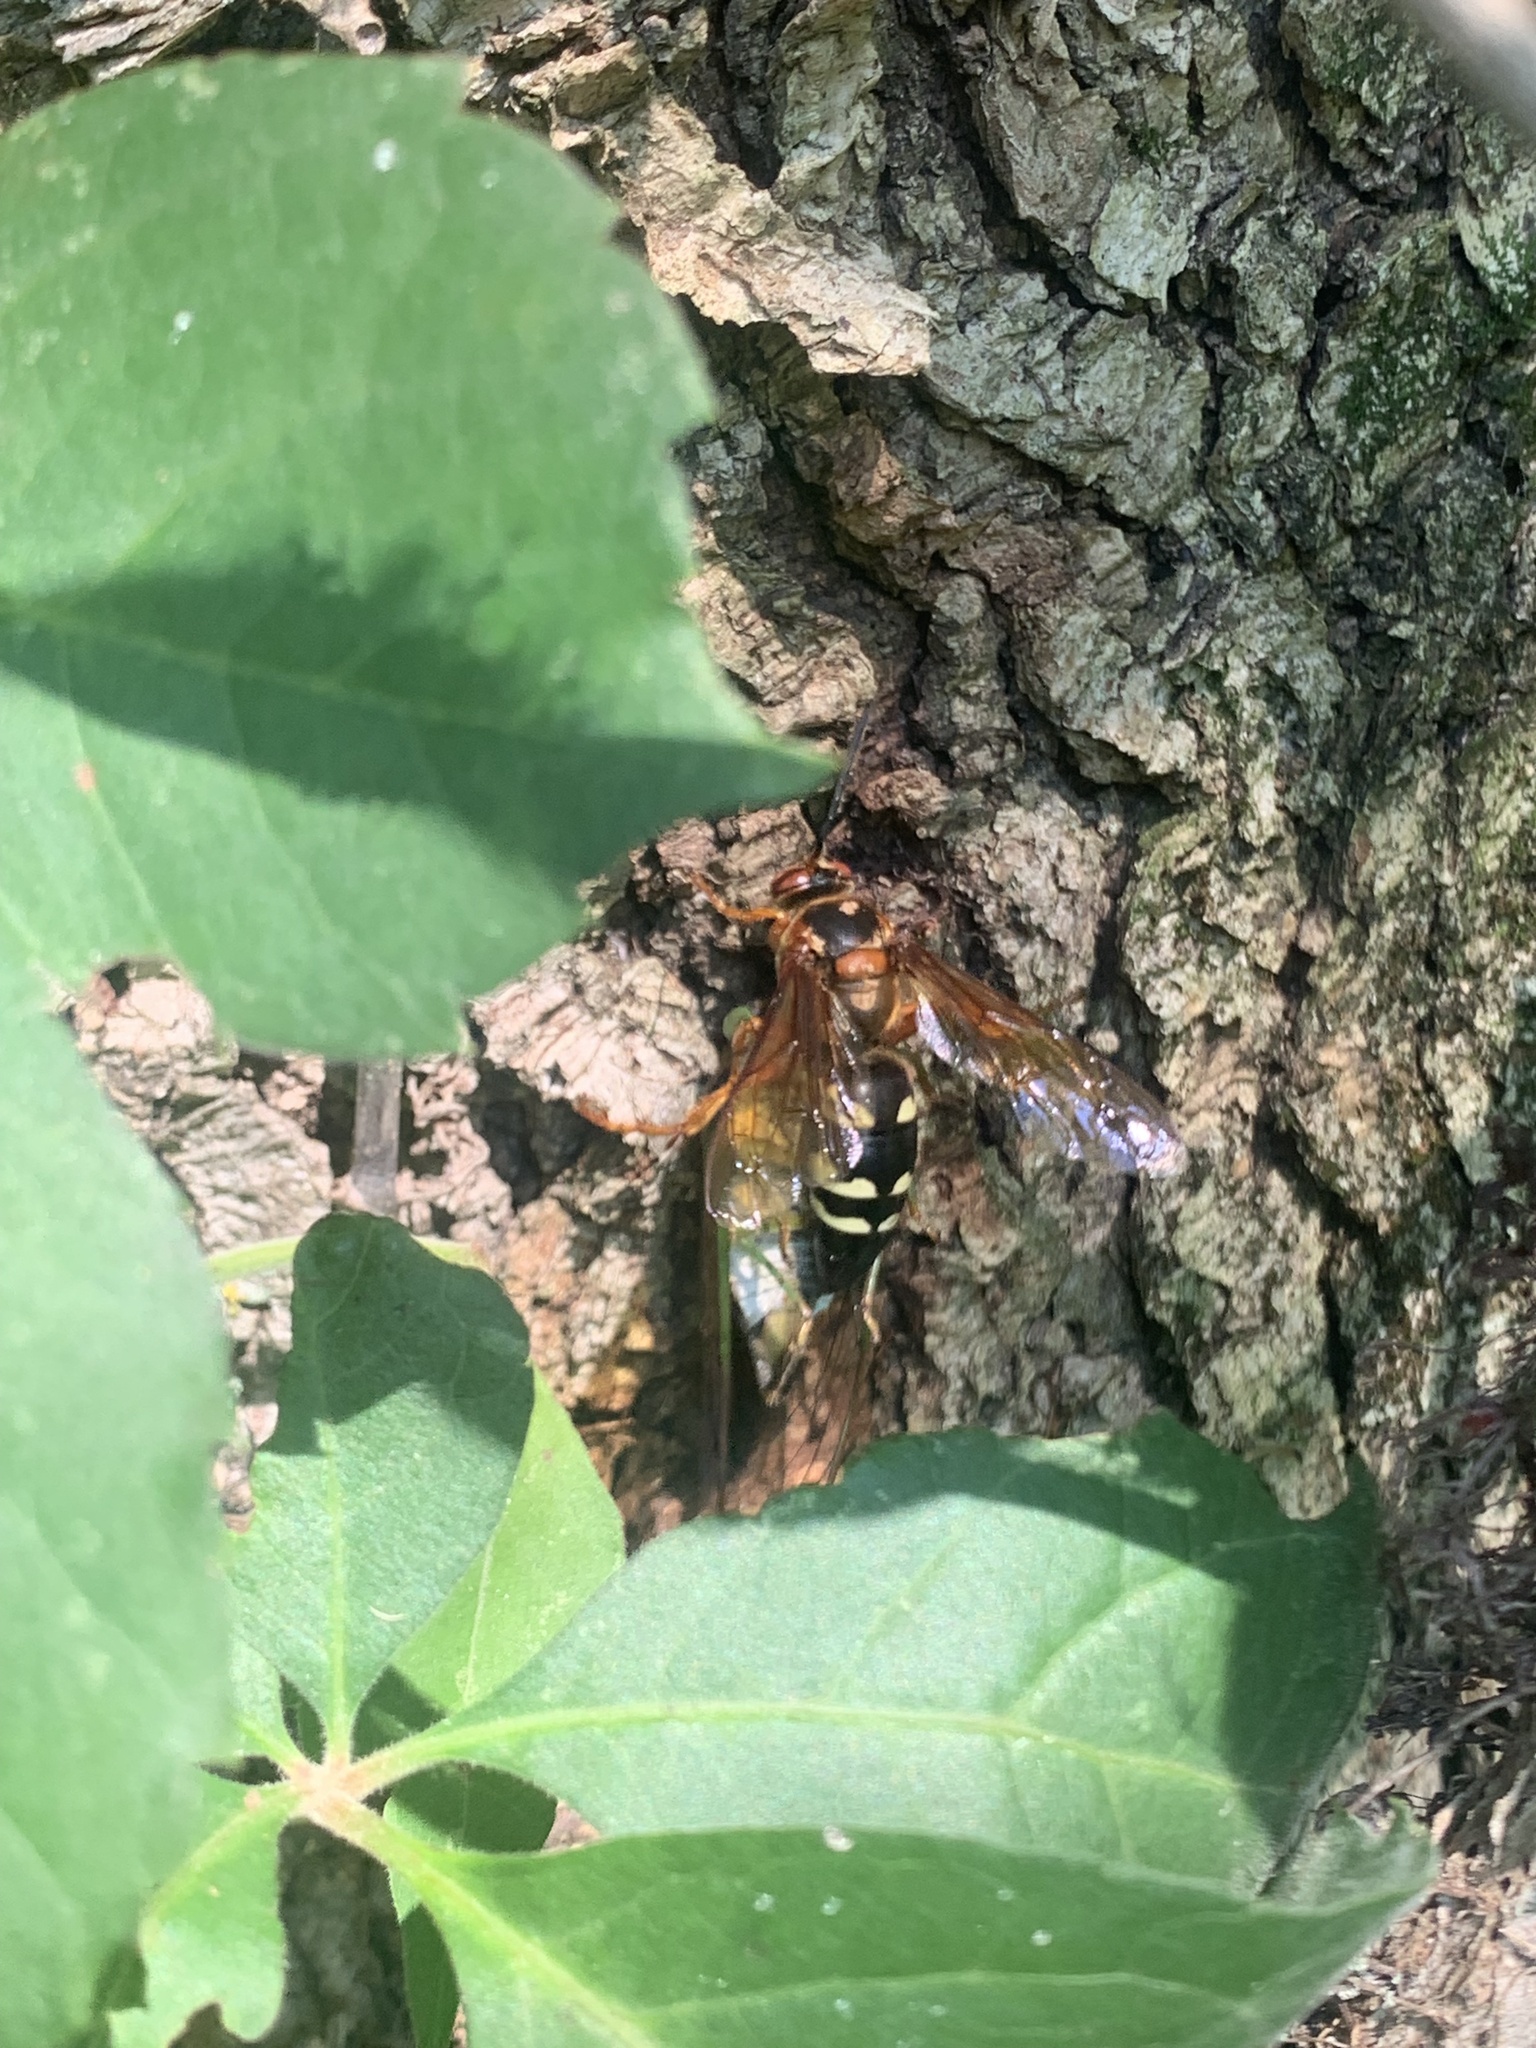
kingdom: Animalia
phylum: Arthropoda
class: Insecta
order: Hemiptera
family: Cicadidae
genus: Neotibicen
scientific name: Neotibicen tibicen
